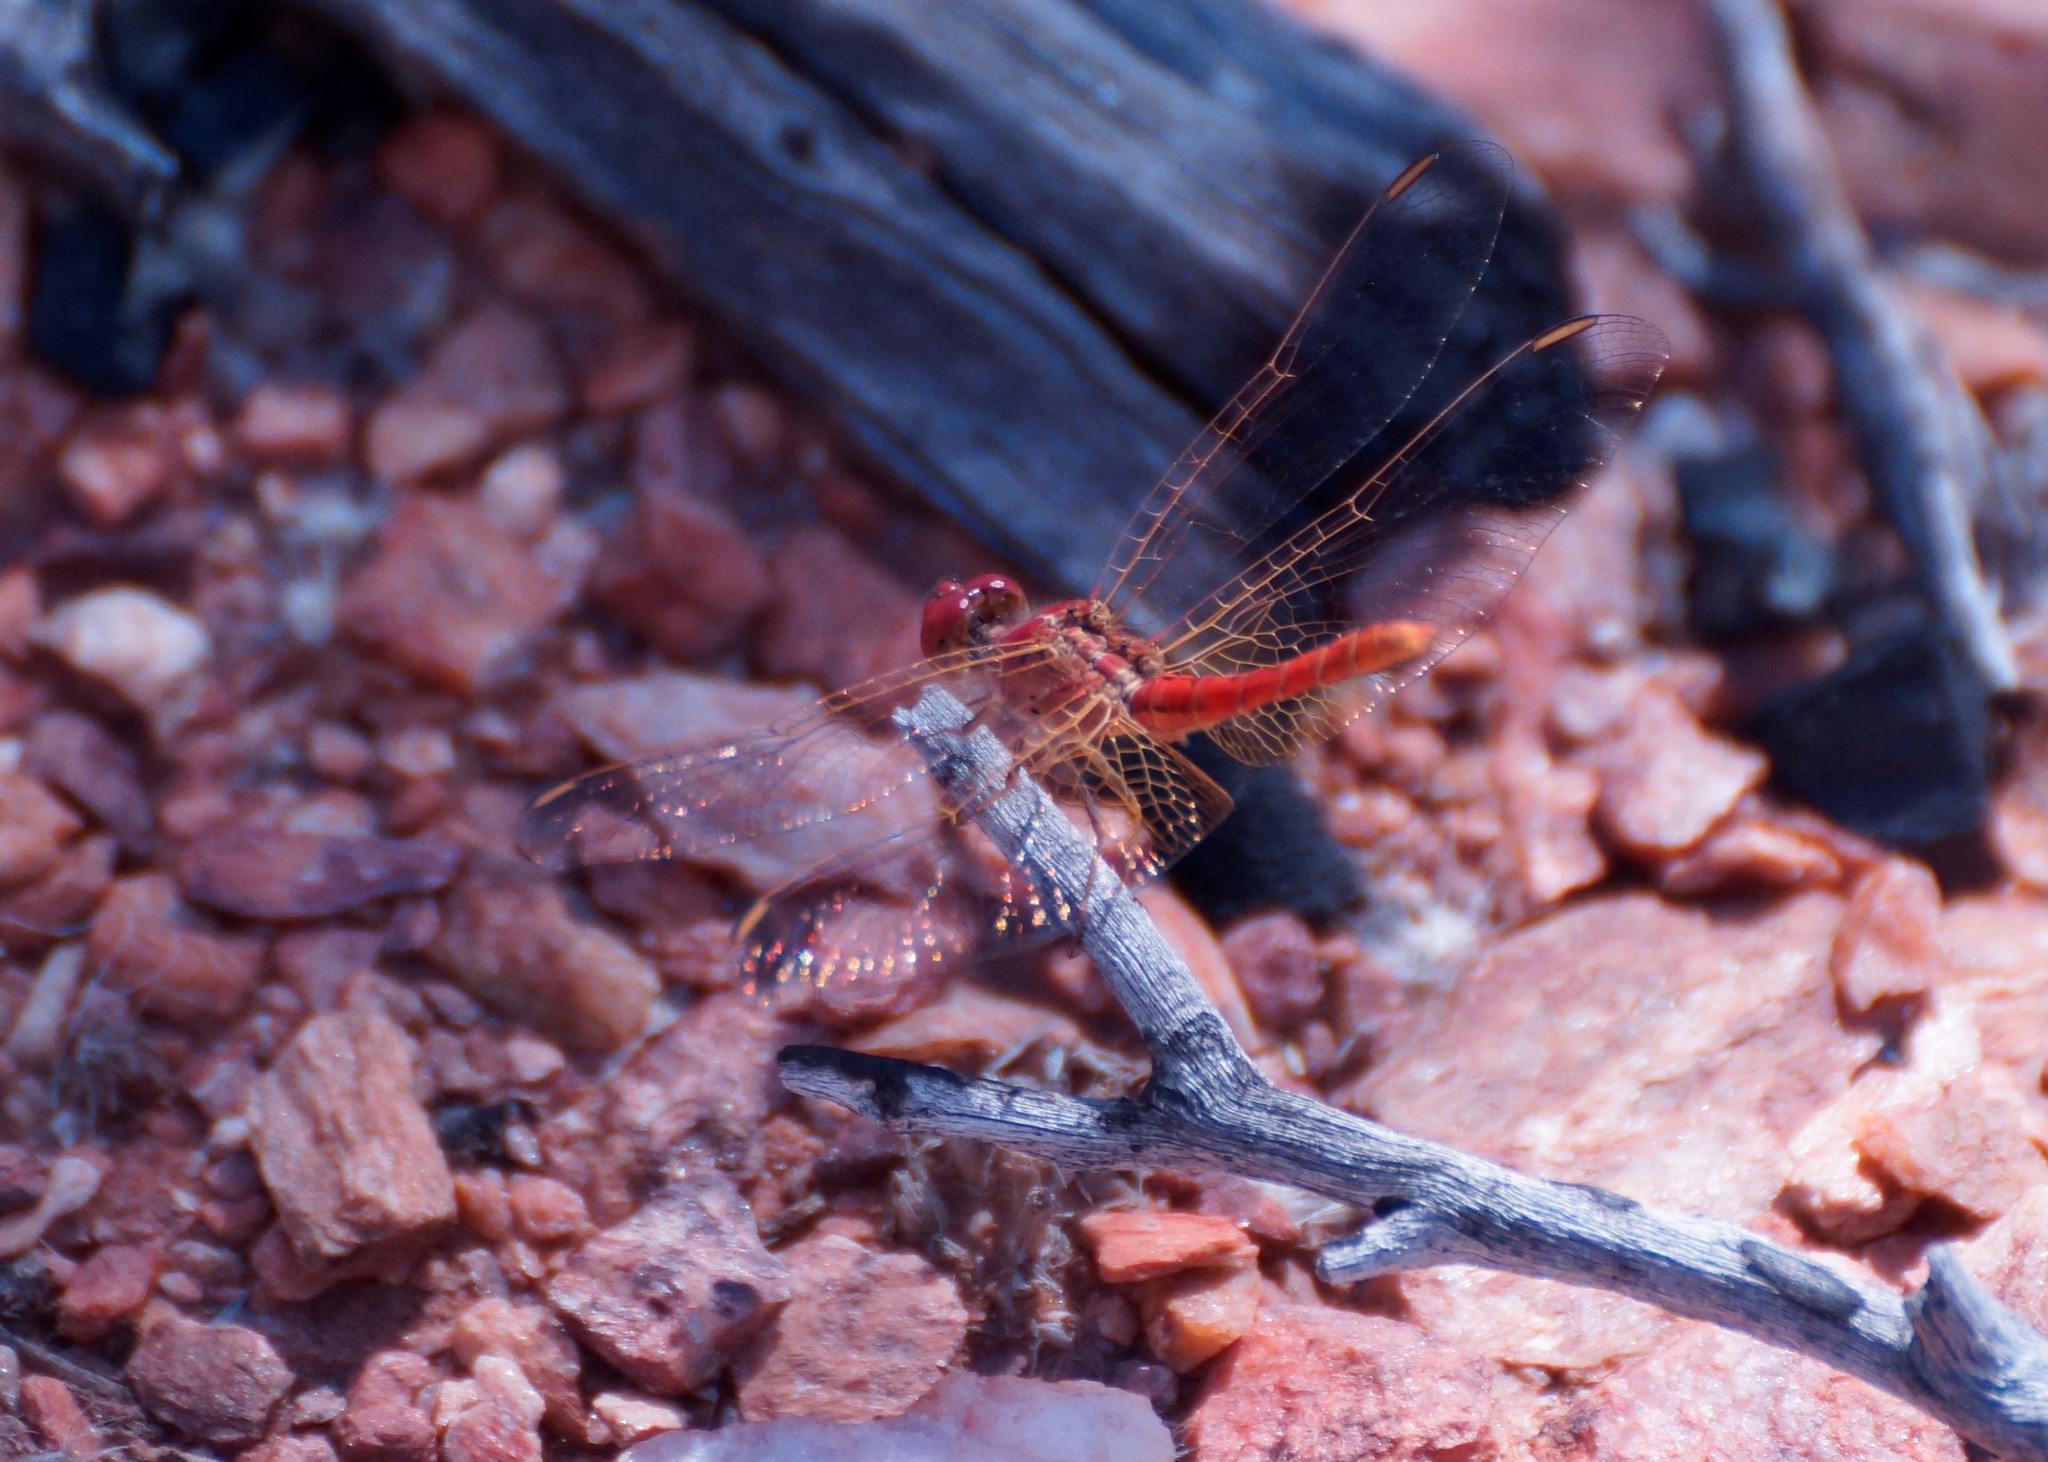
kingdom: Animalia
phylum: Arthropoda
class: Insecta
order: Odonata
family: Libellulidae
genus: Diplacodes
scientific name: Diplacodes haematodes
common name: Scarlet percher
